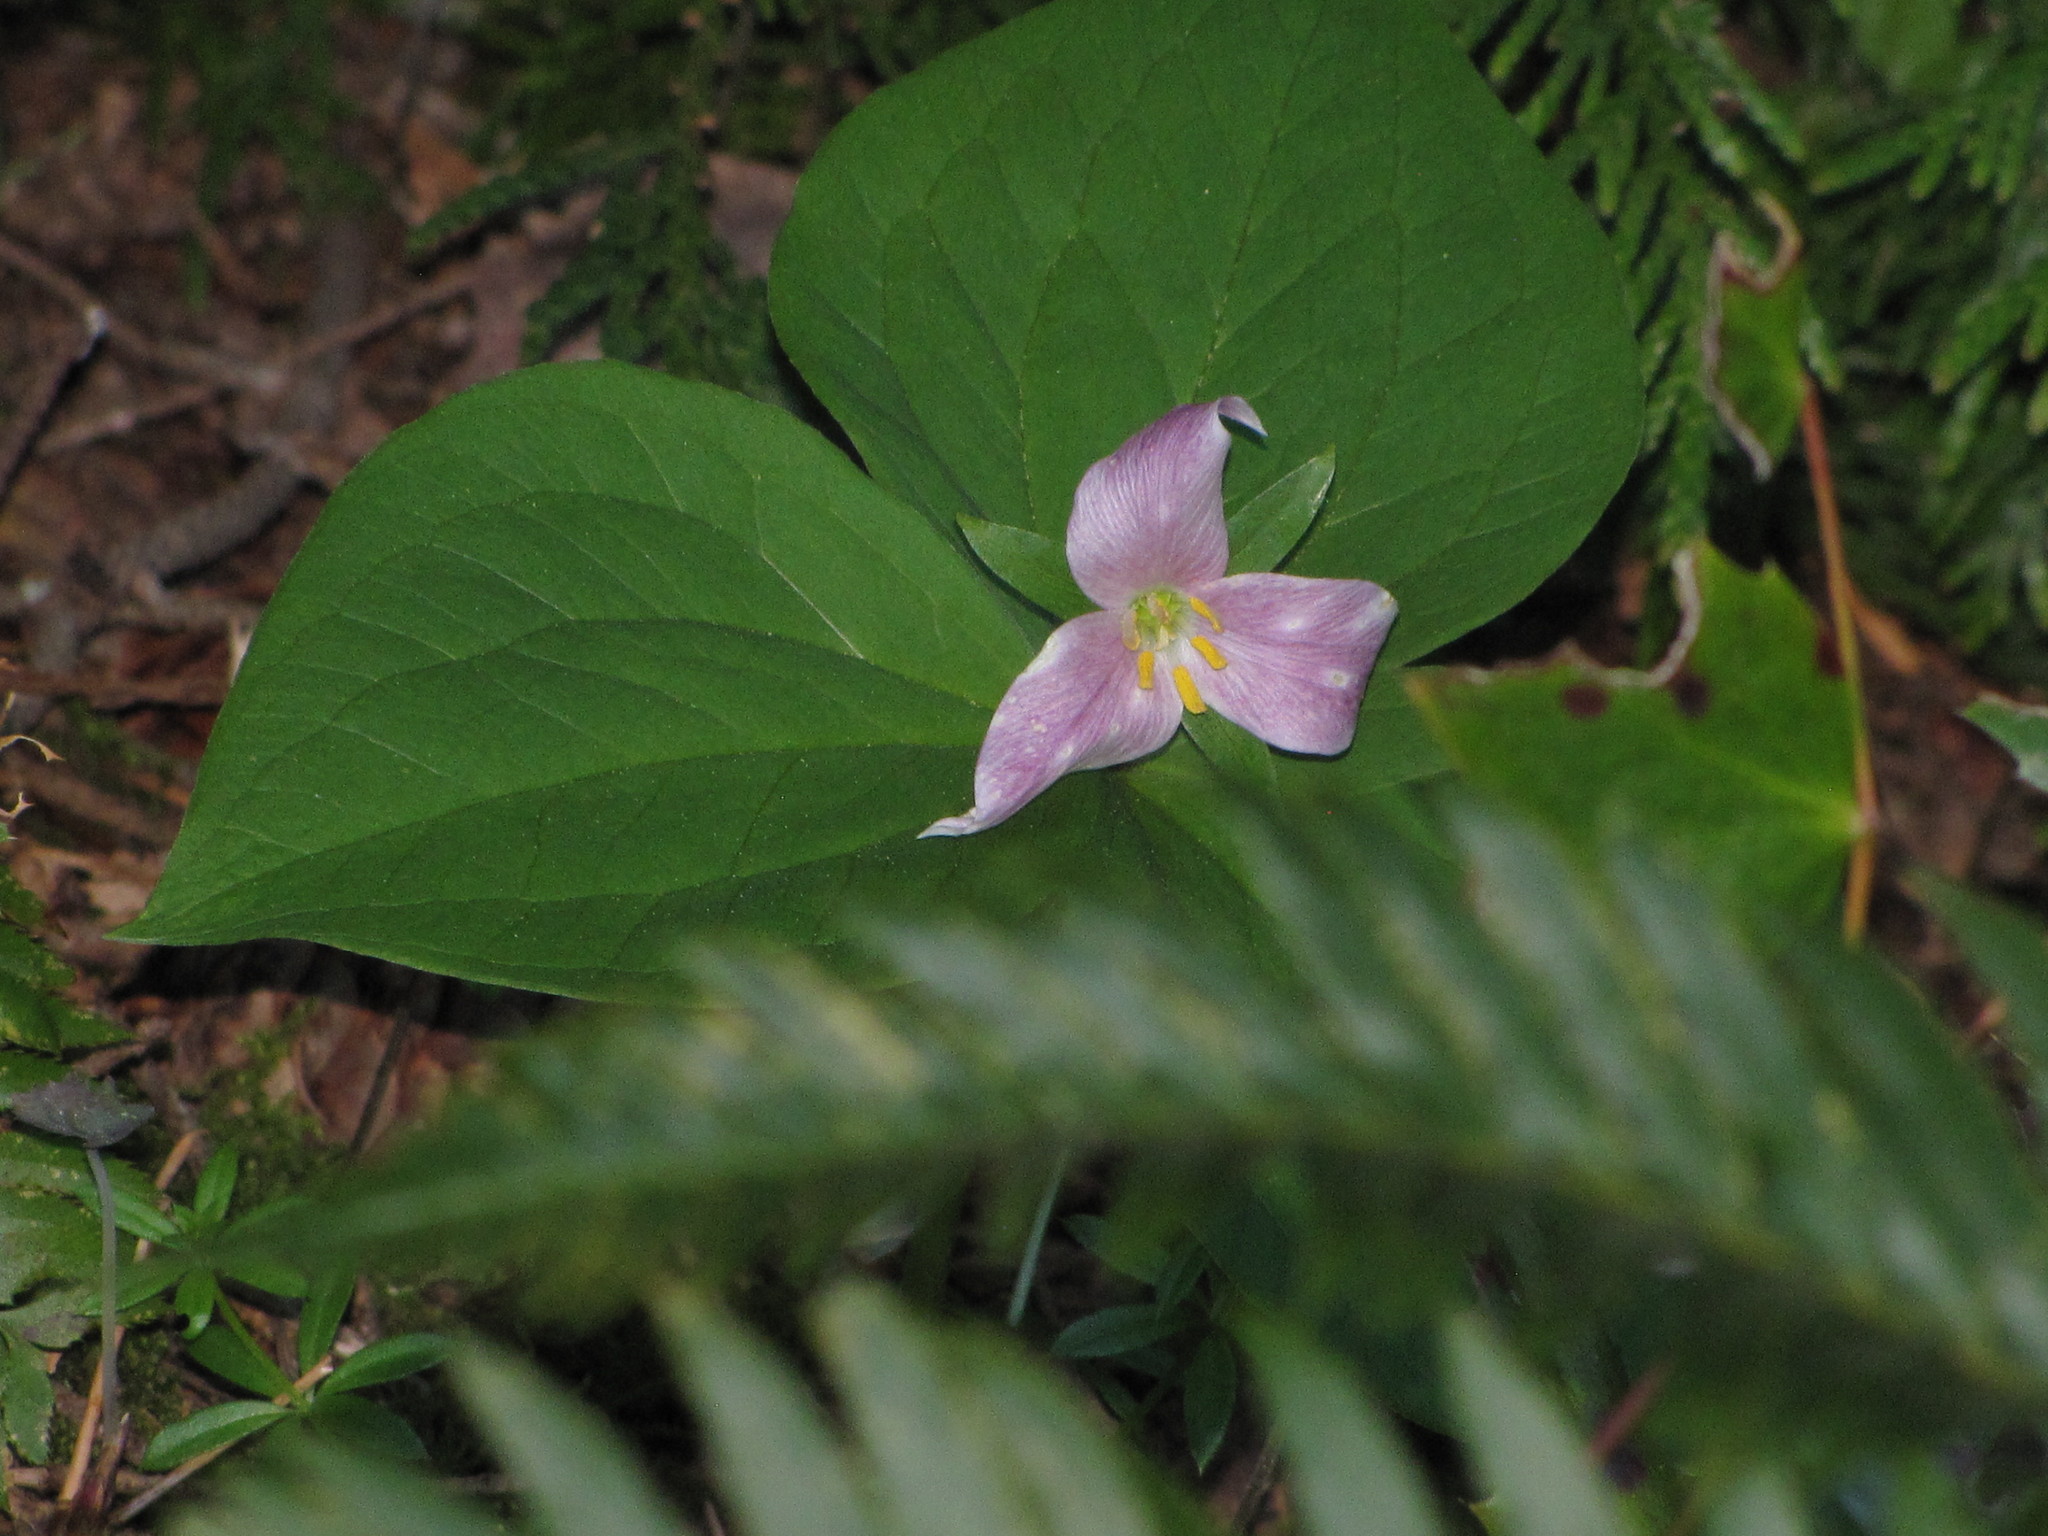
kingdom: Plantae
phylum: Tracheophyta
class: Liliopsida
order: Liliales
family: Melanthiaceae
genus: Trillium
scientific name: Trillium ovatum
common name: Pacific trillium
